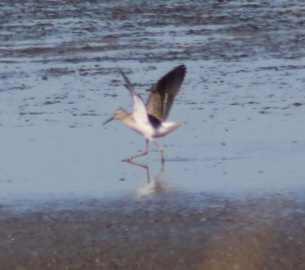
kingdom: Animalia
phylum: Chordata
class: Aves
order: Charadriiformes
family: Scolopacidae
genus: Calidris
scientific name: Calidris himantopus
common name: Stilt sandpiper
